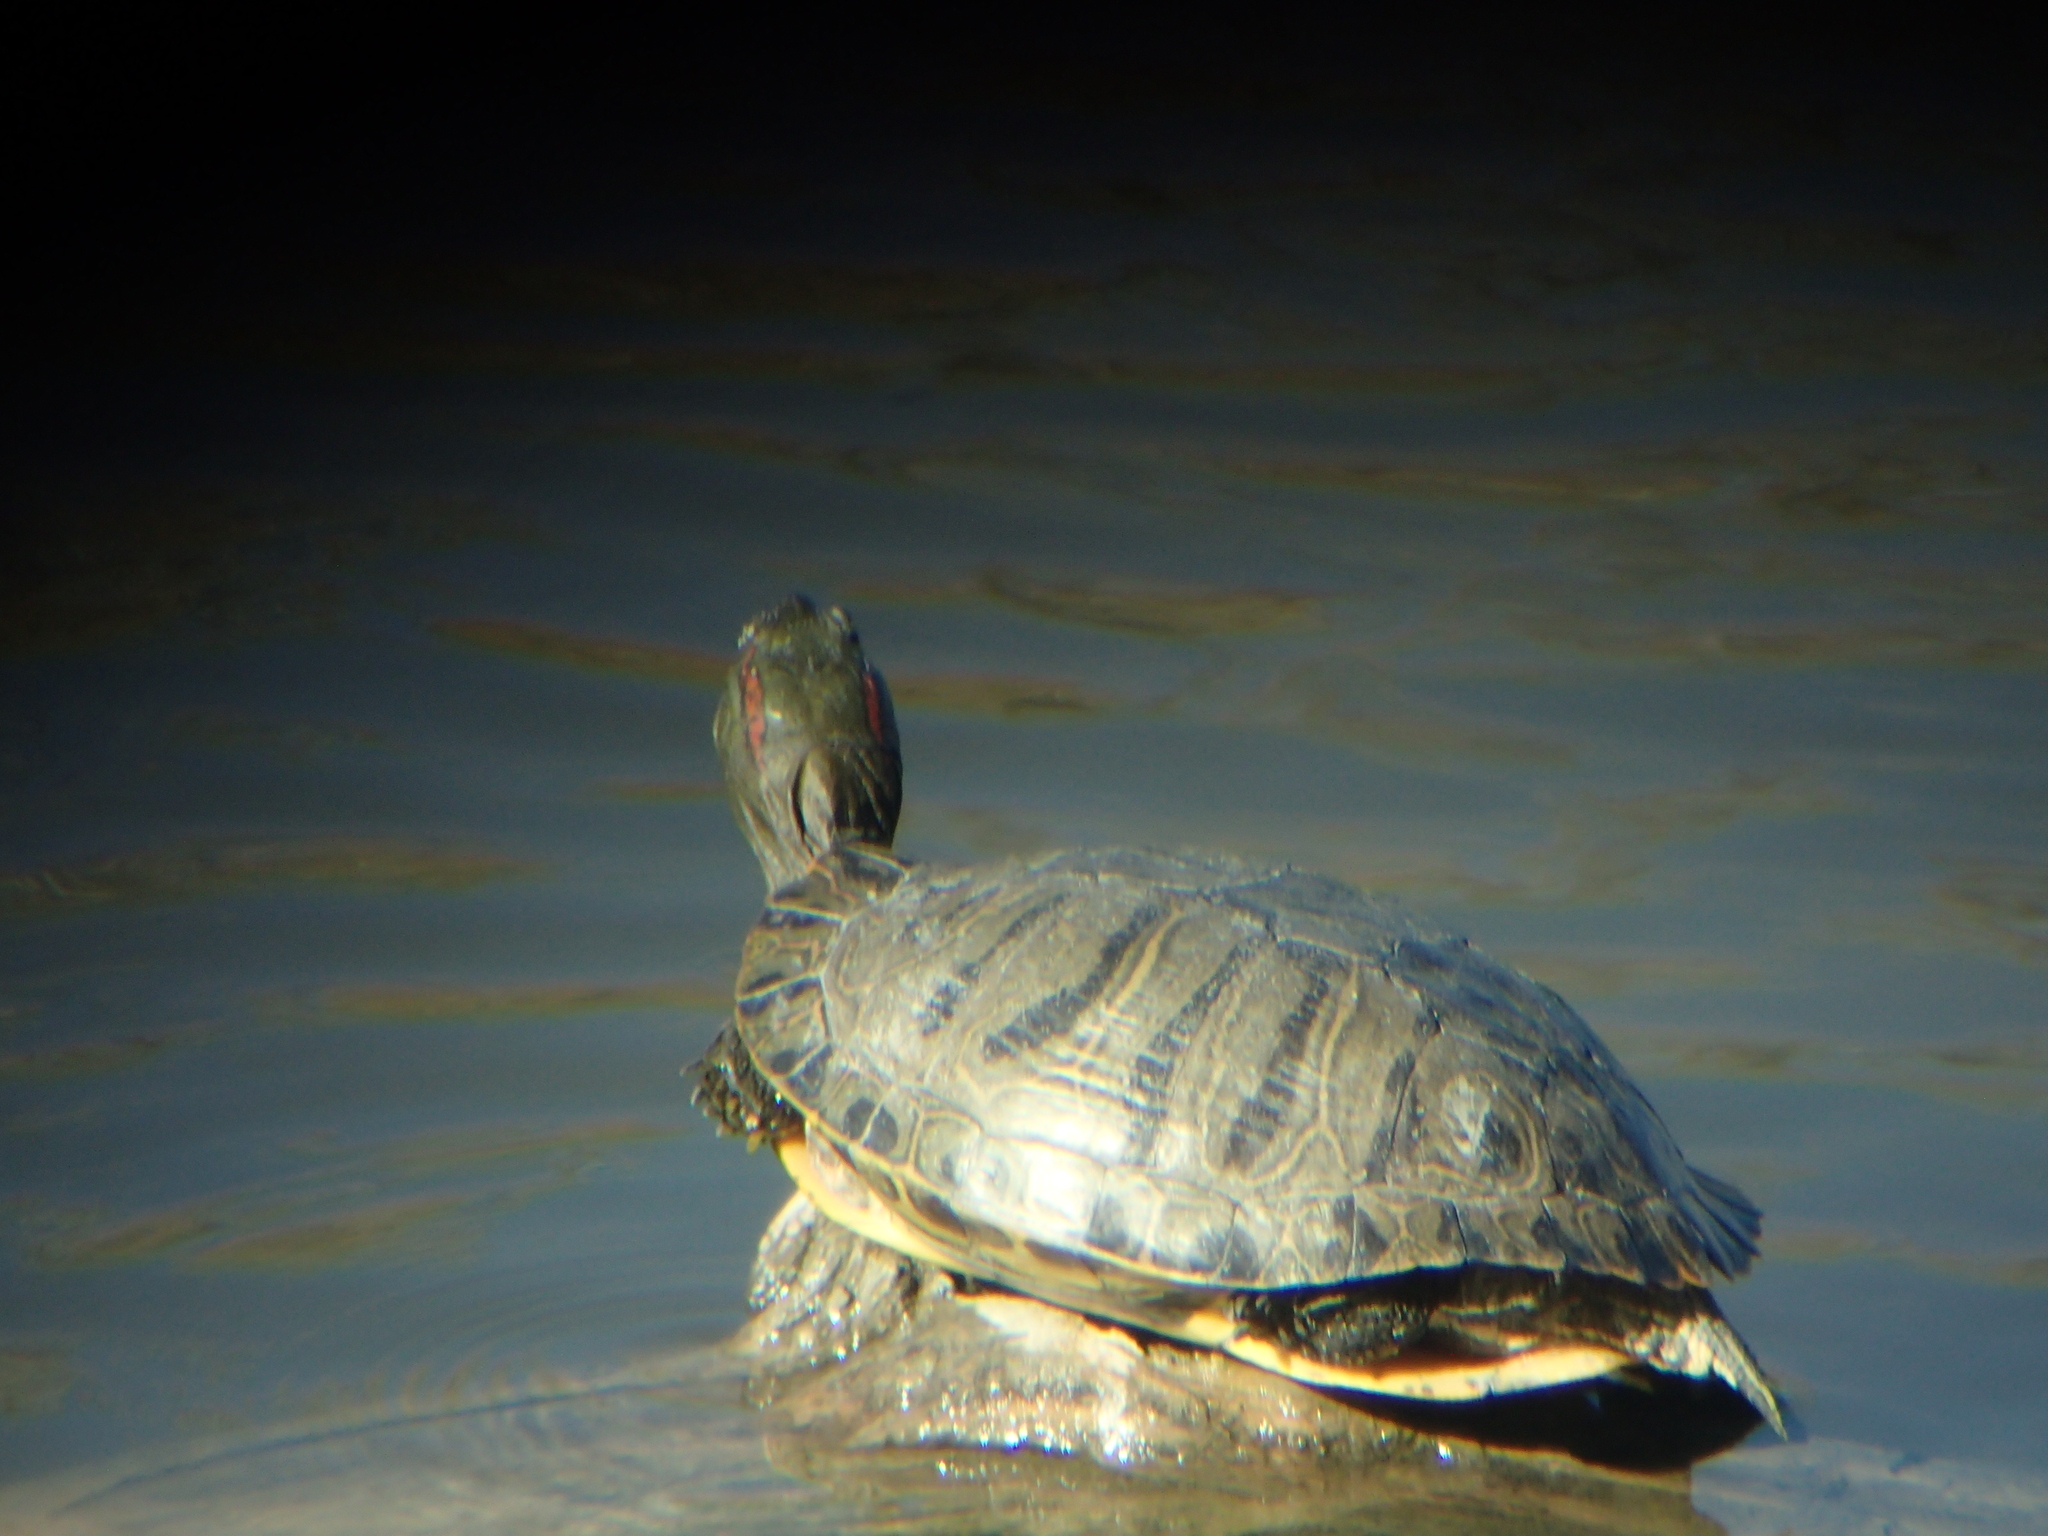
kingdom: Animalia
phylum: Chordata
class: Testudines
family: Emydidae
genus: Trachemys
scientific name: Trachemys scripta
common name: Slider
